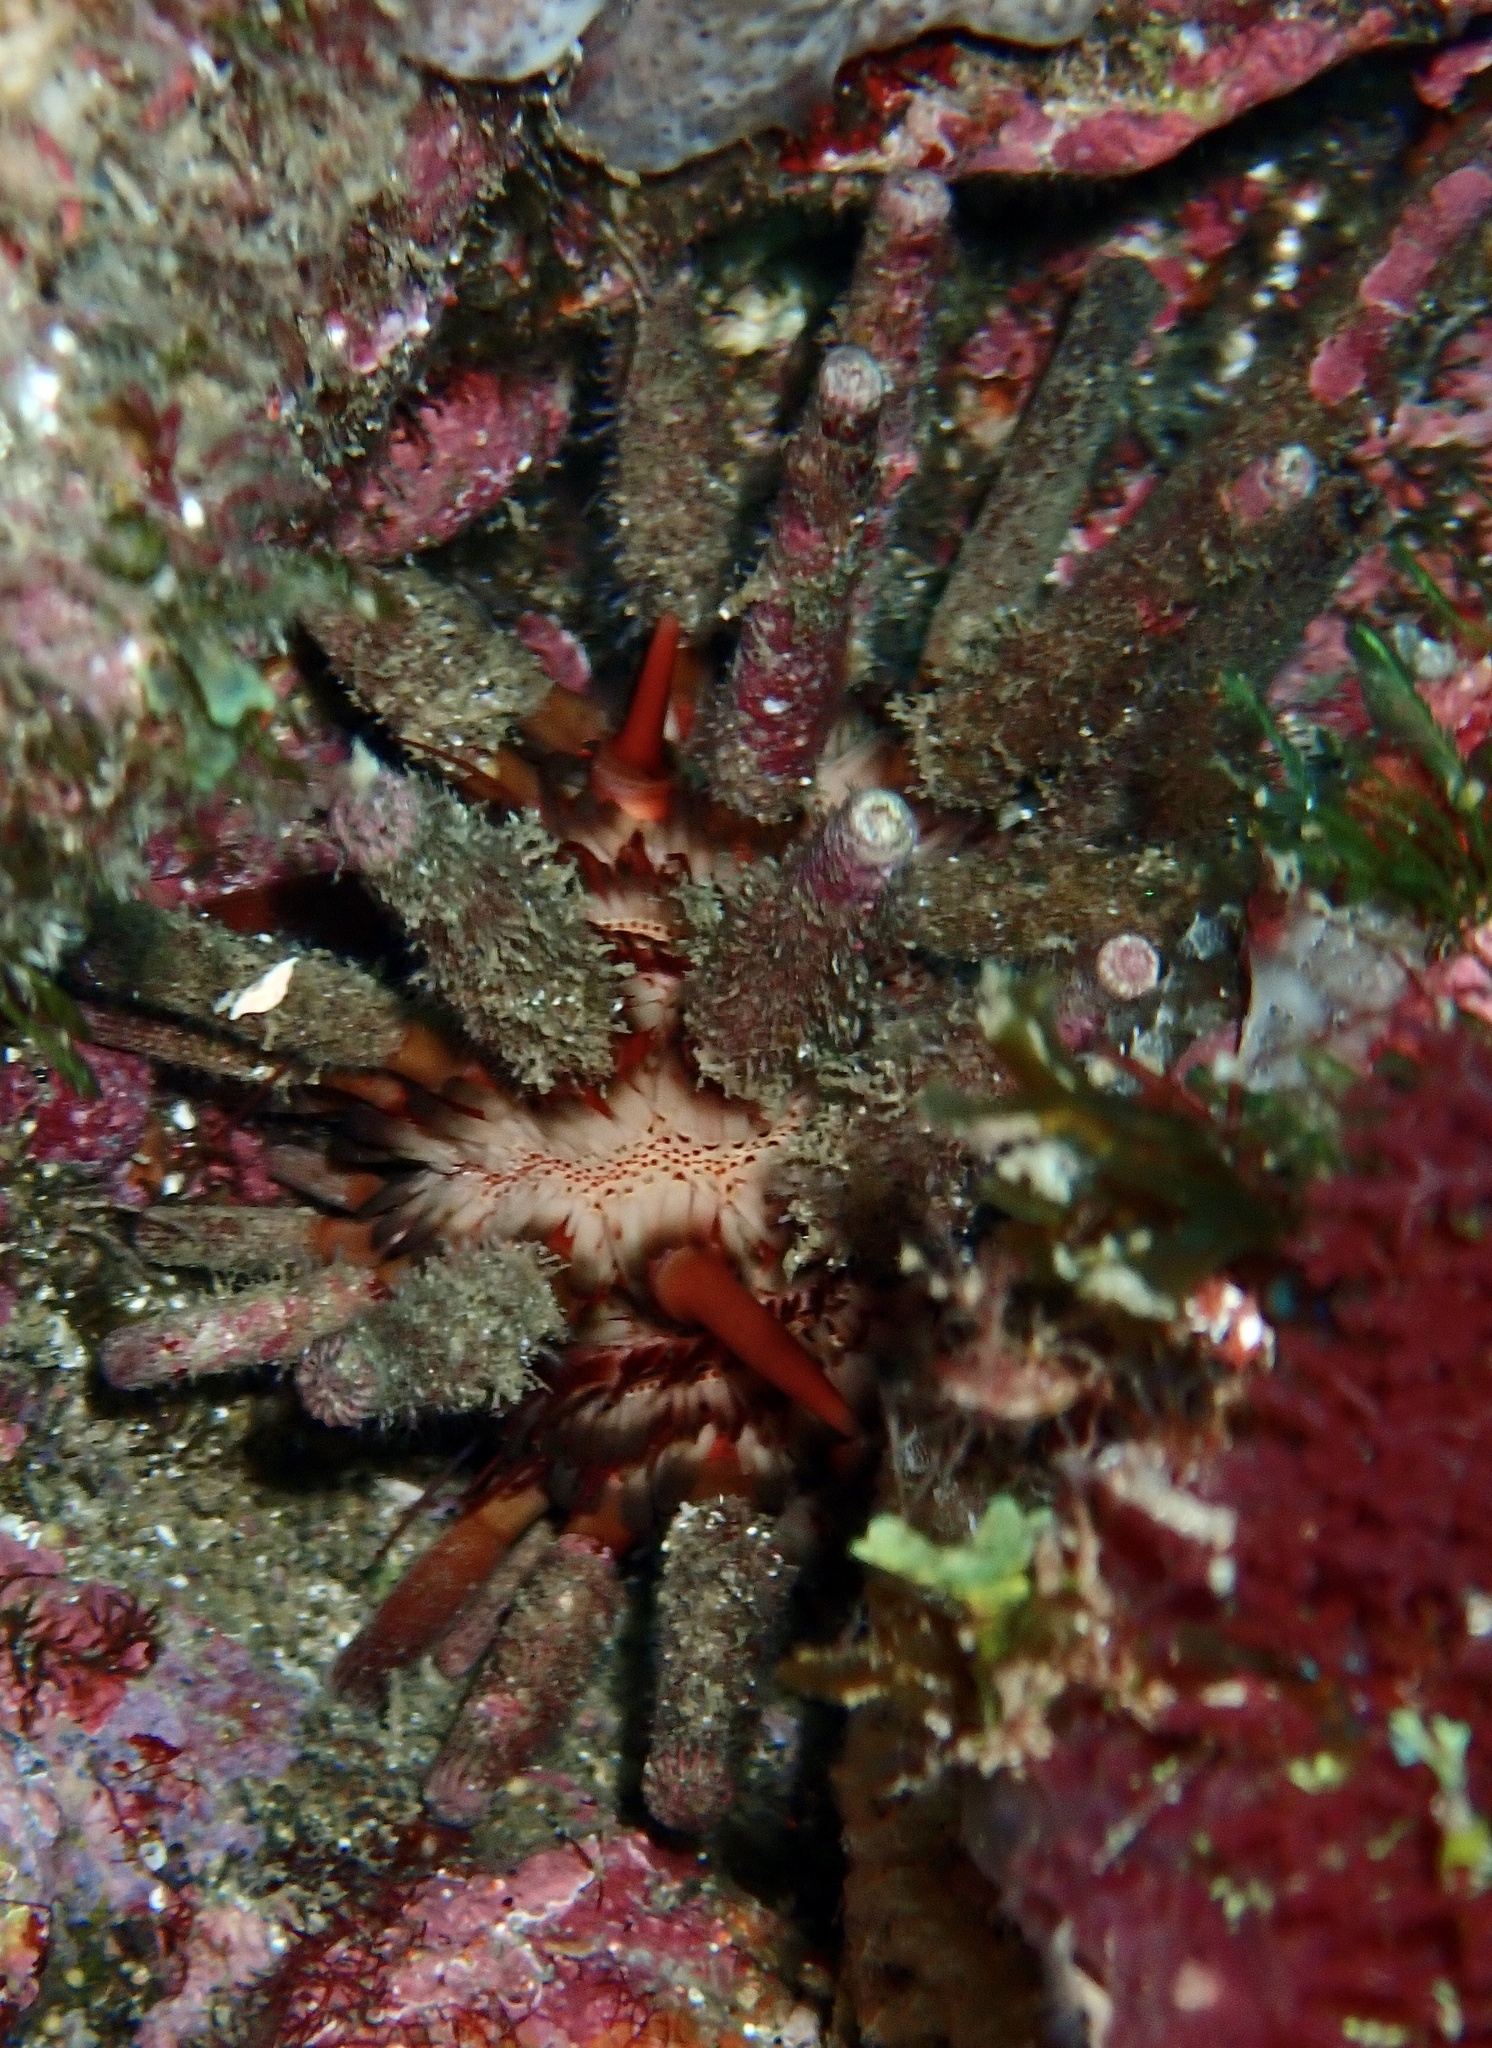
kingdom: Animalia
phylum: Echinodermata
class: Echinoidea
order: Cidaroida
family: Cidaridae
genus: Eucidaris
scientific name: Eucidaris tribuloides
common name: Slate pencil urchin
